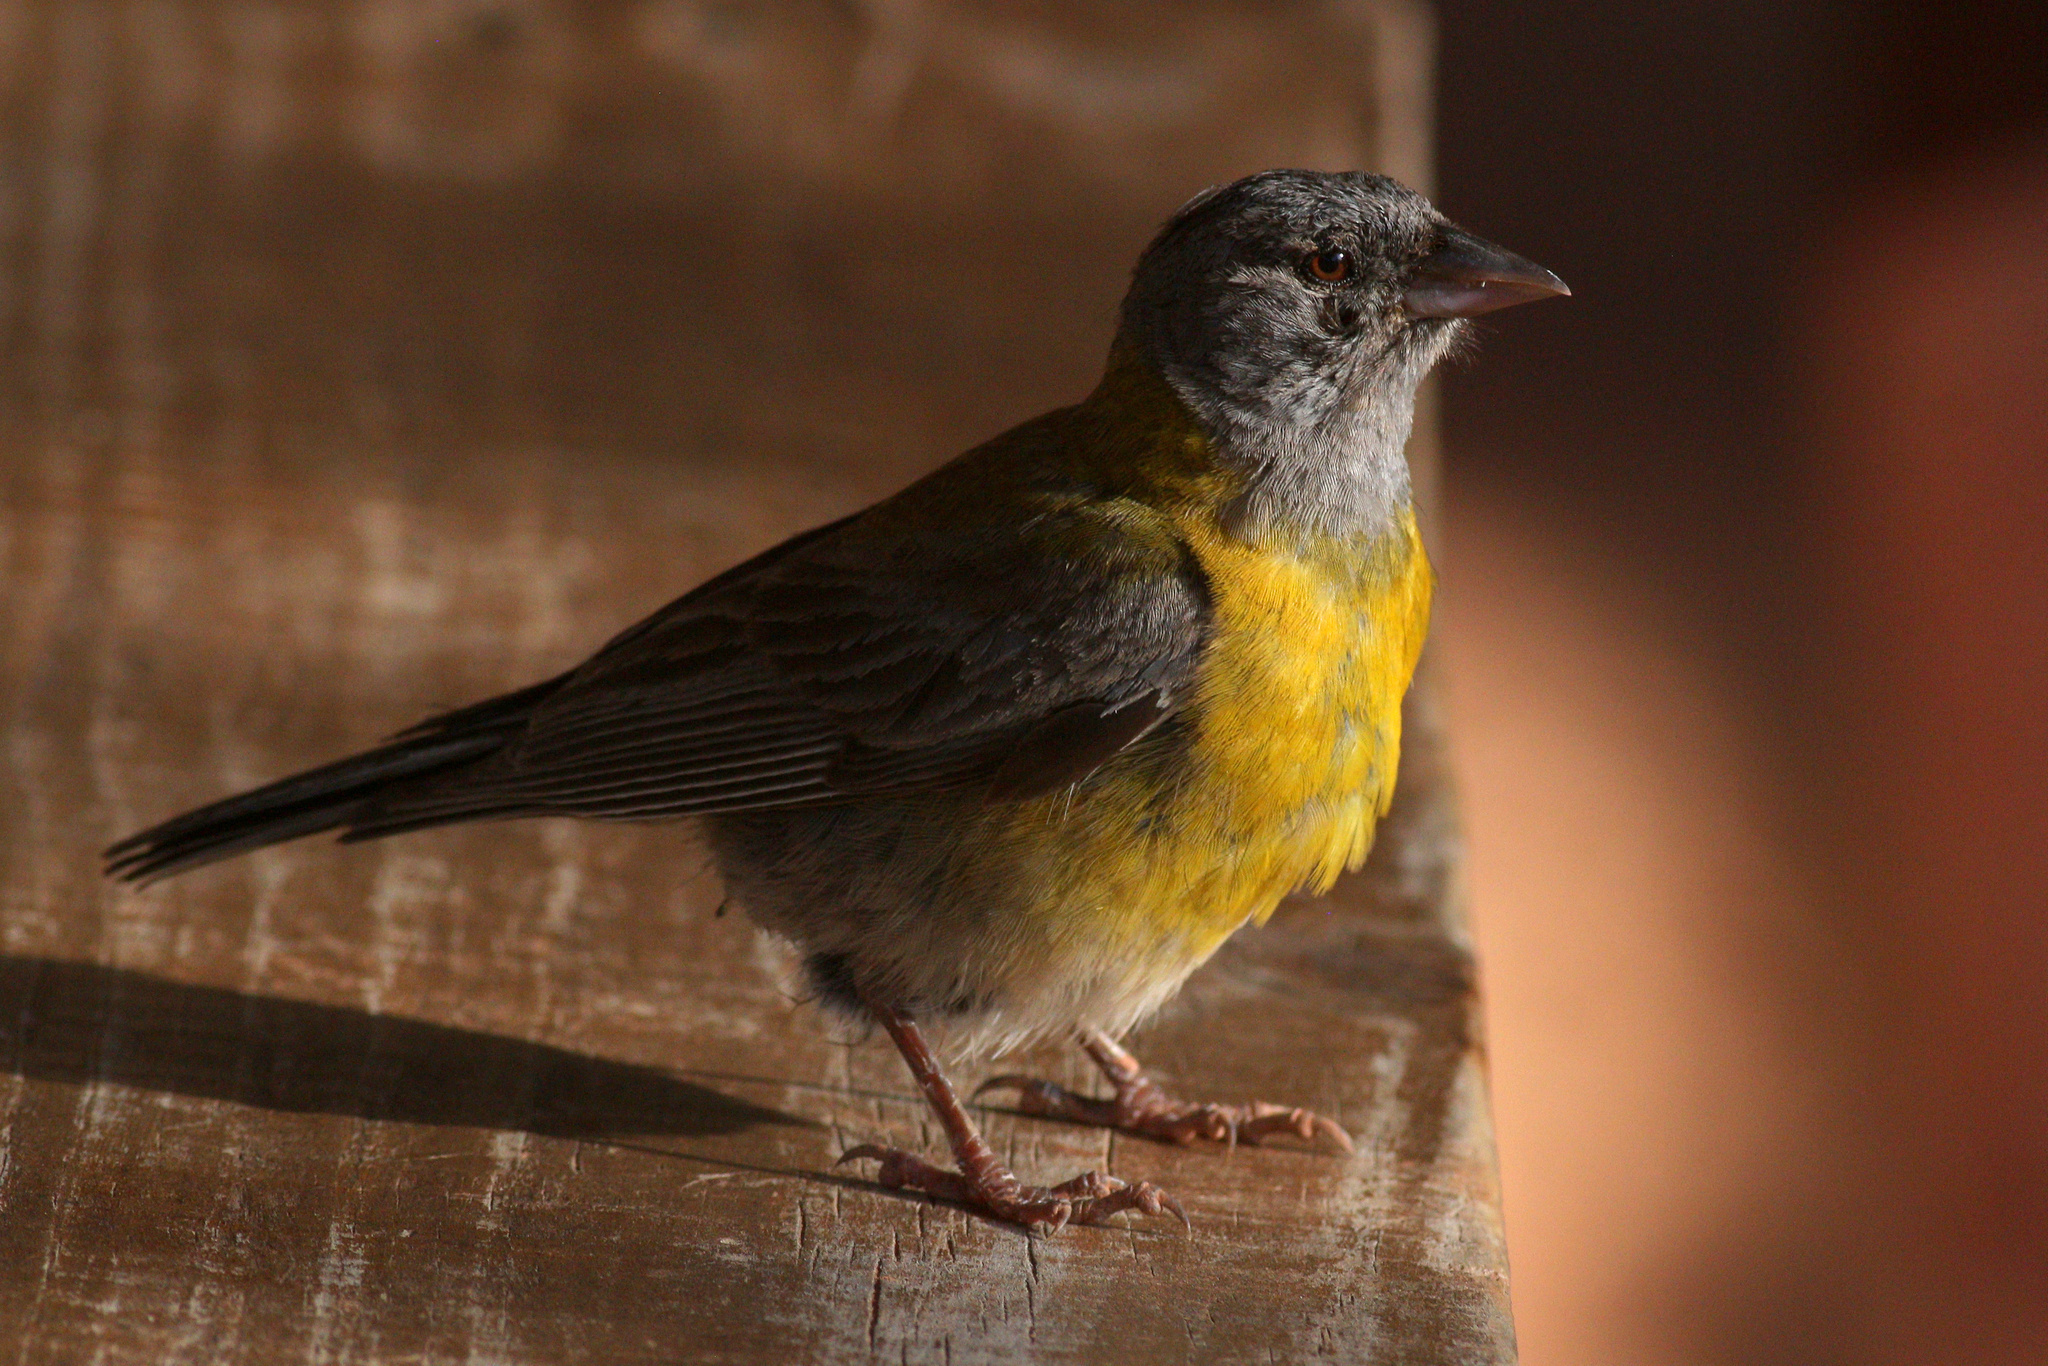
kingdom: Animalia
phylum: Chordata
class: Aves
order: Passeriformes
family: Thraupidae
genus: Phrygilus
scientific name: Phrygilus gayi
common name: Grey-hooded sierra finch
